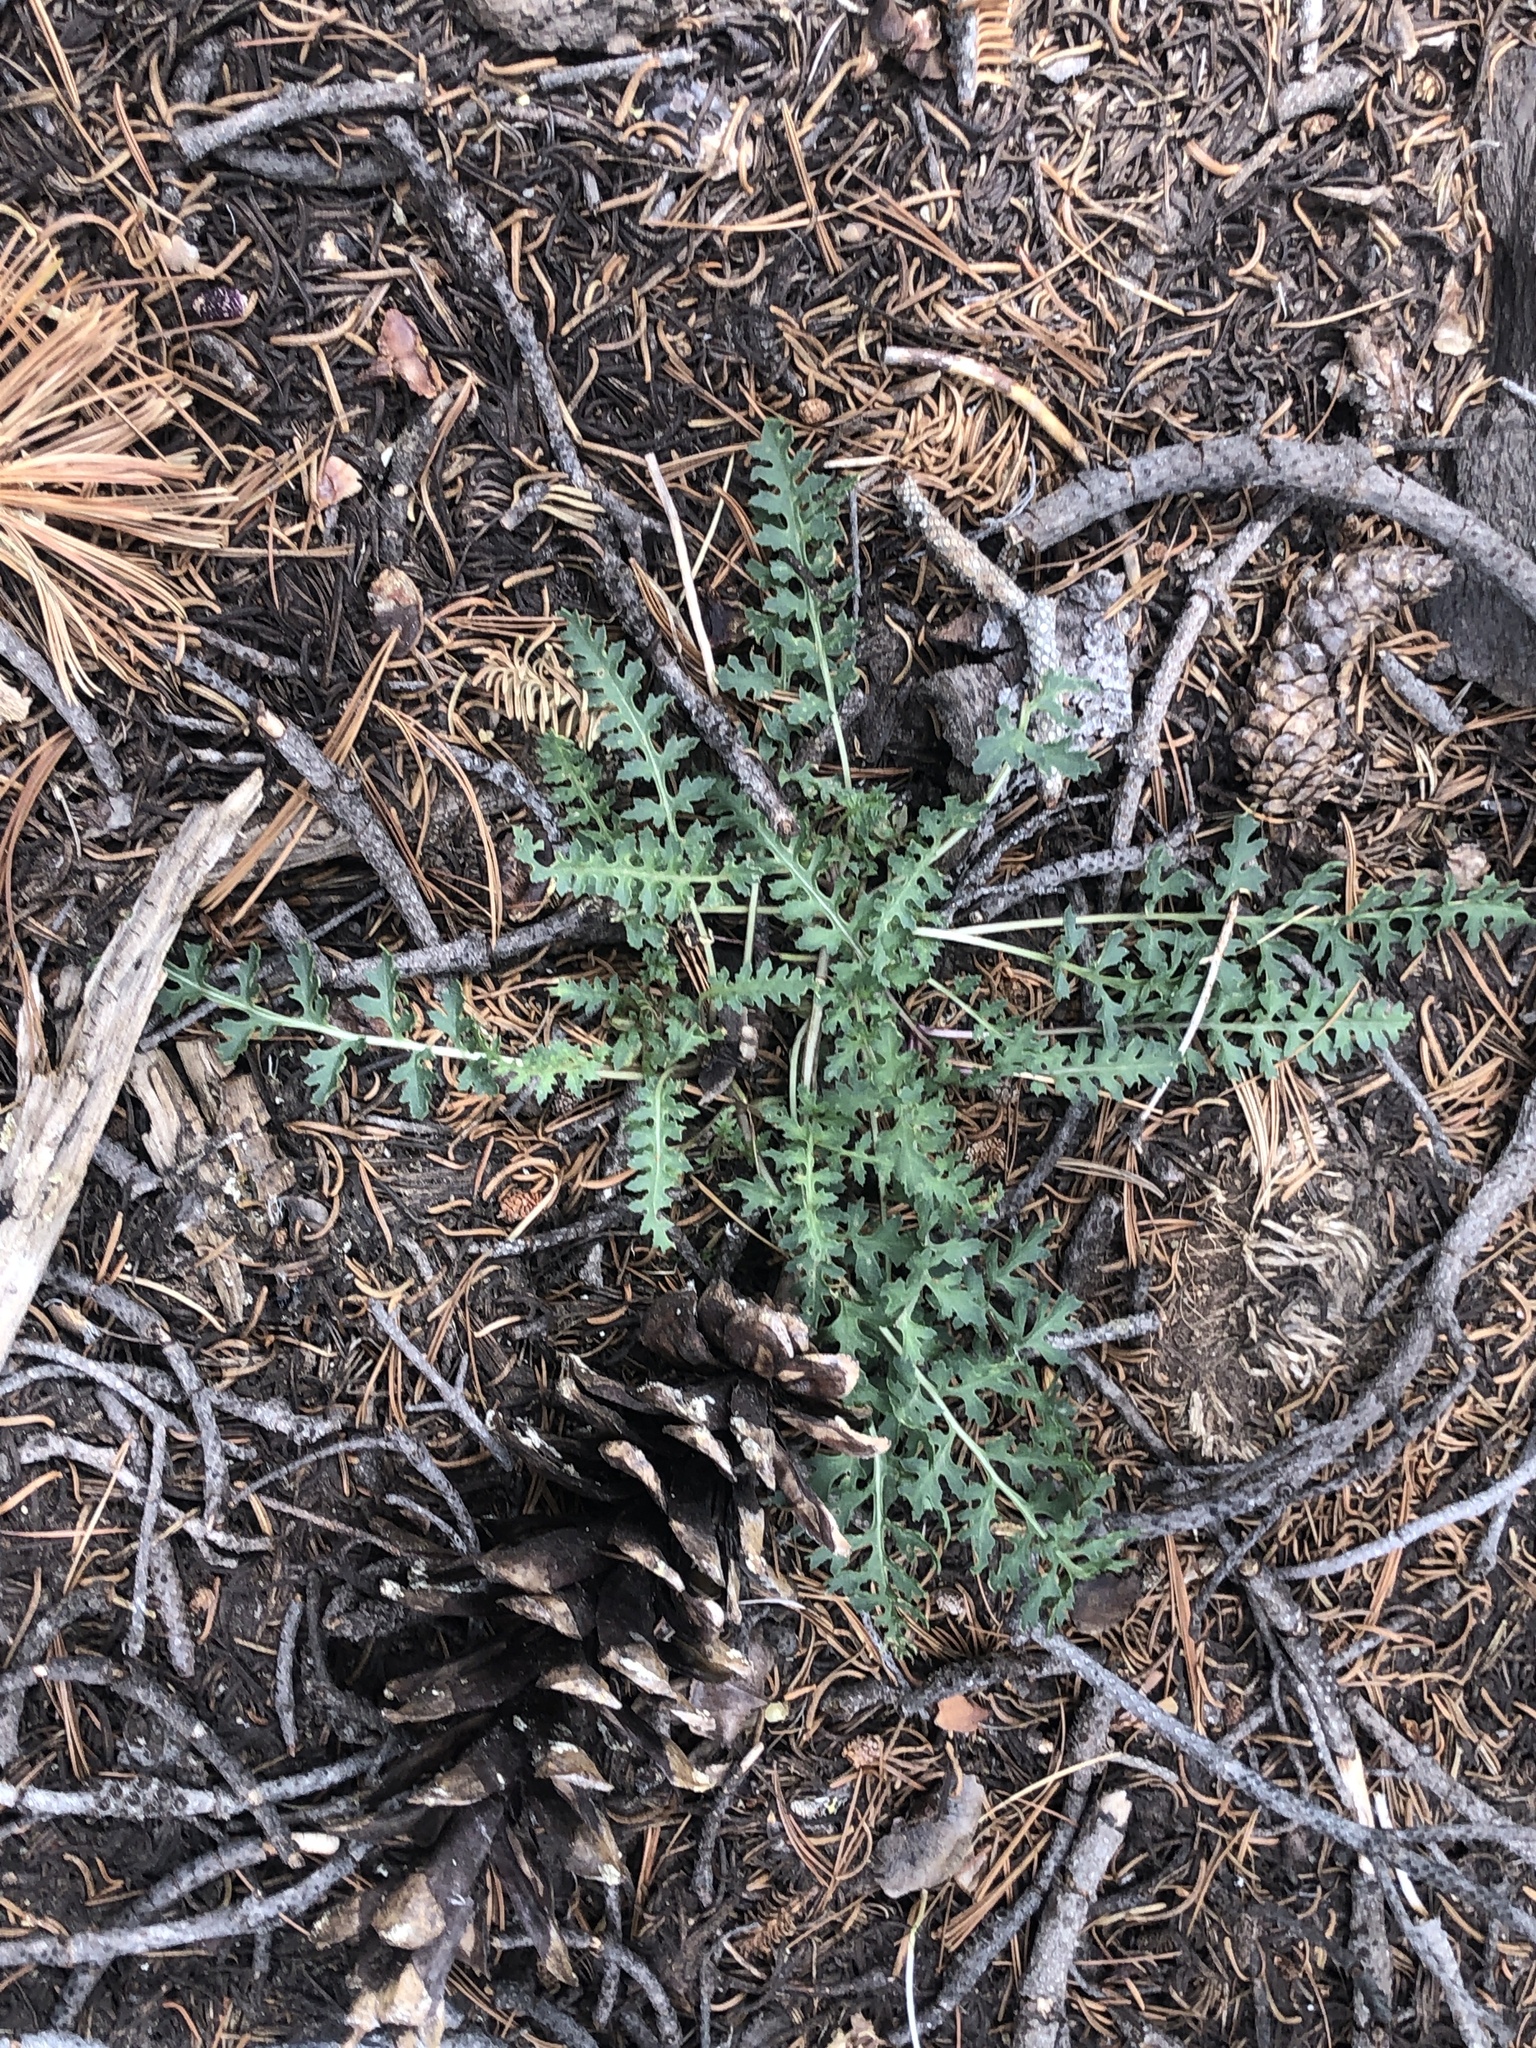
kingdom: Plantae
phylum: Tracheophyta
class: Magnoliopsida
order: Lamiales
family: Orobanchaceae
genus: Pedicularis
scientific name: Pedicularis semibarbata
